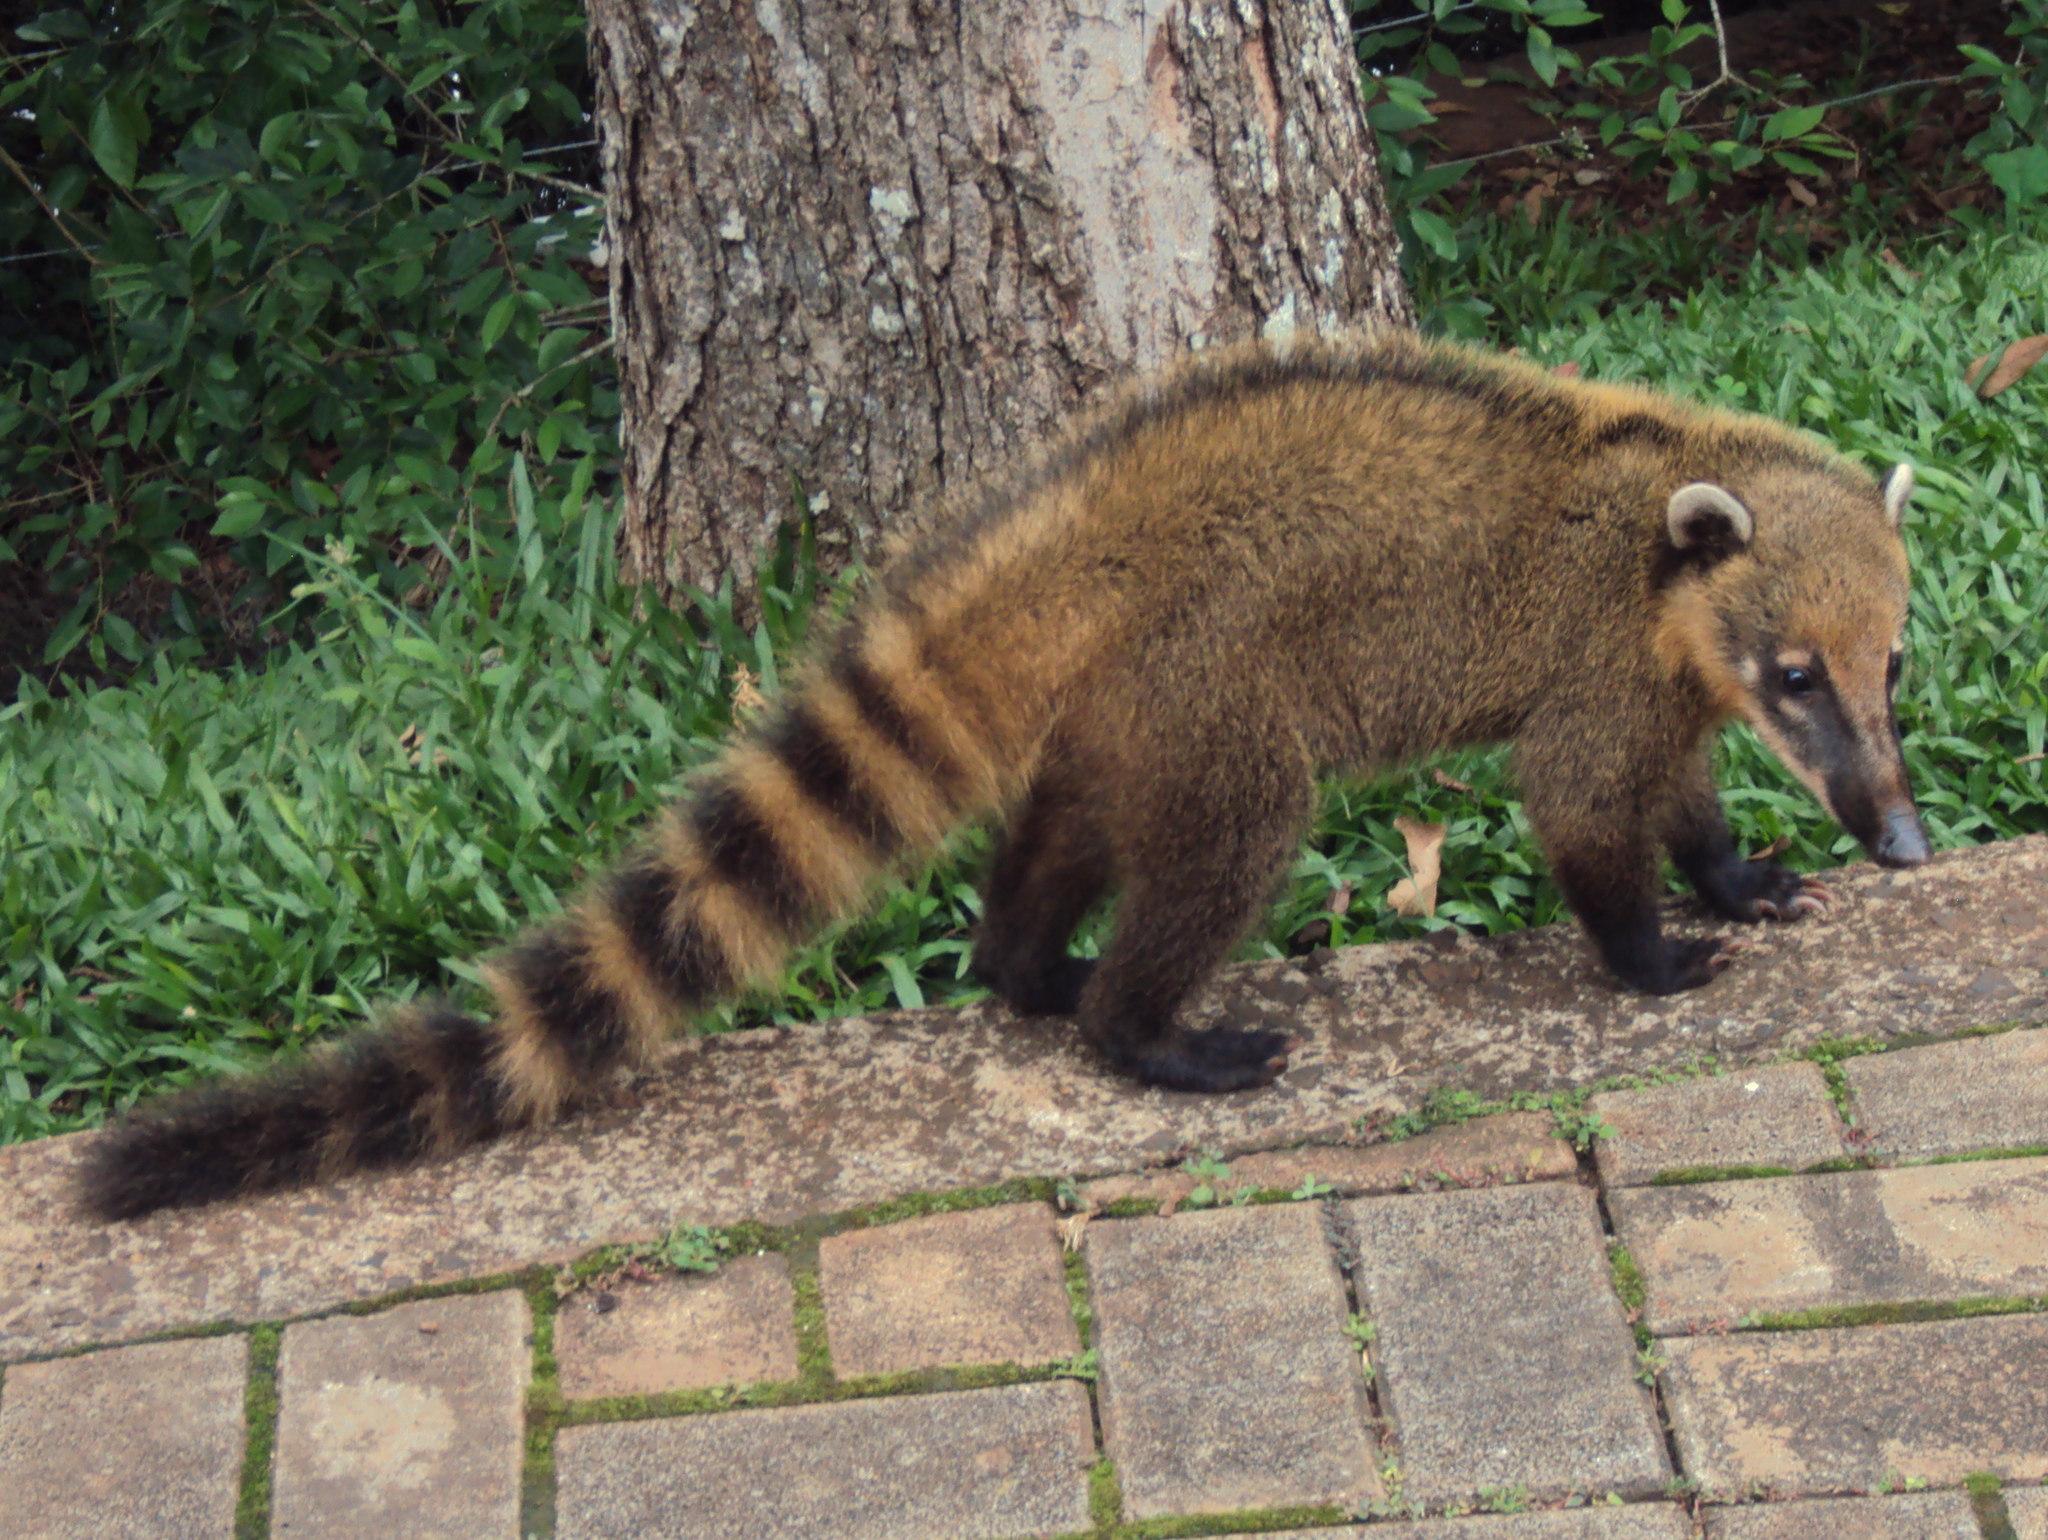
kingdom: Animalia
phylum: Chordata
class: Mammalia
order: Carnivora
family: Procyonidae
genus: Nasua
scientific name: Nasua nasua
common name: South american coati
